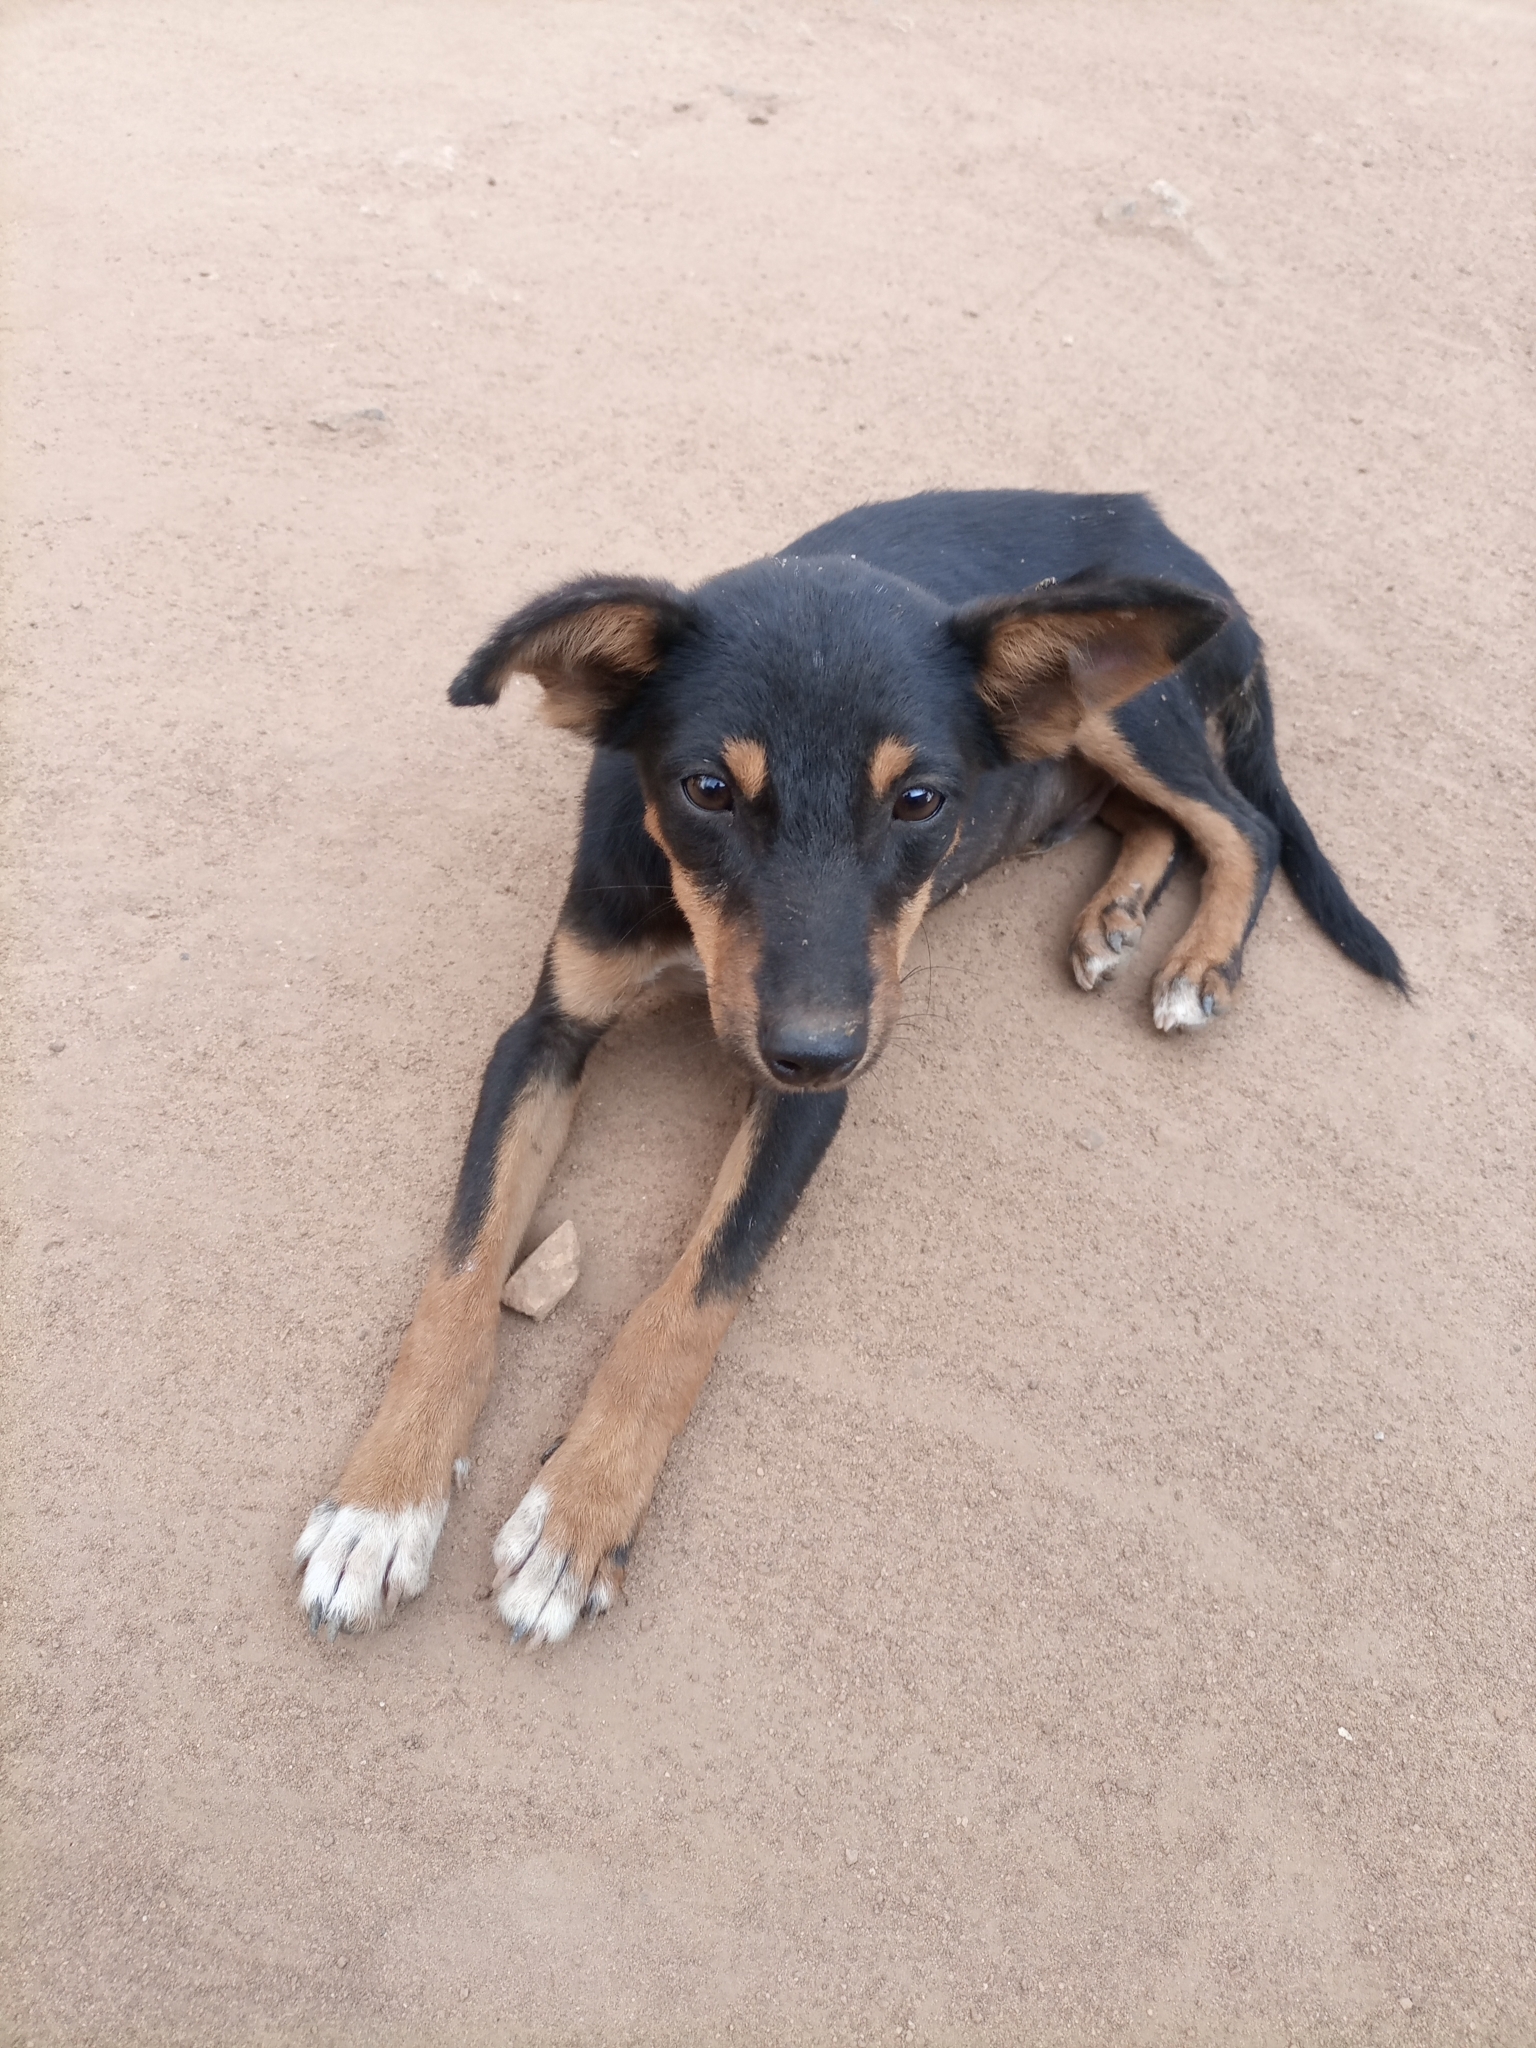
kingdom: Animalia
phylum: Chordata
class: Mammalia
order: Carnivora
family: Canidae
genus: Canis
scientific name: Canis lupus
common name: Gray wolf
